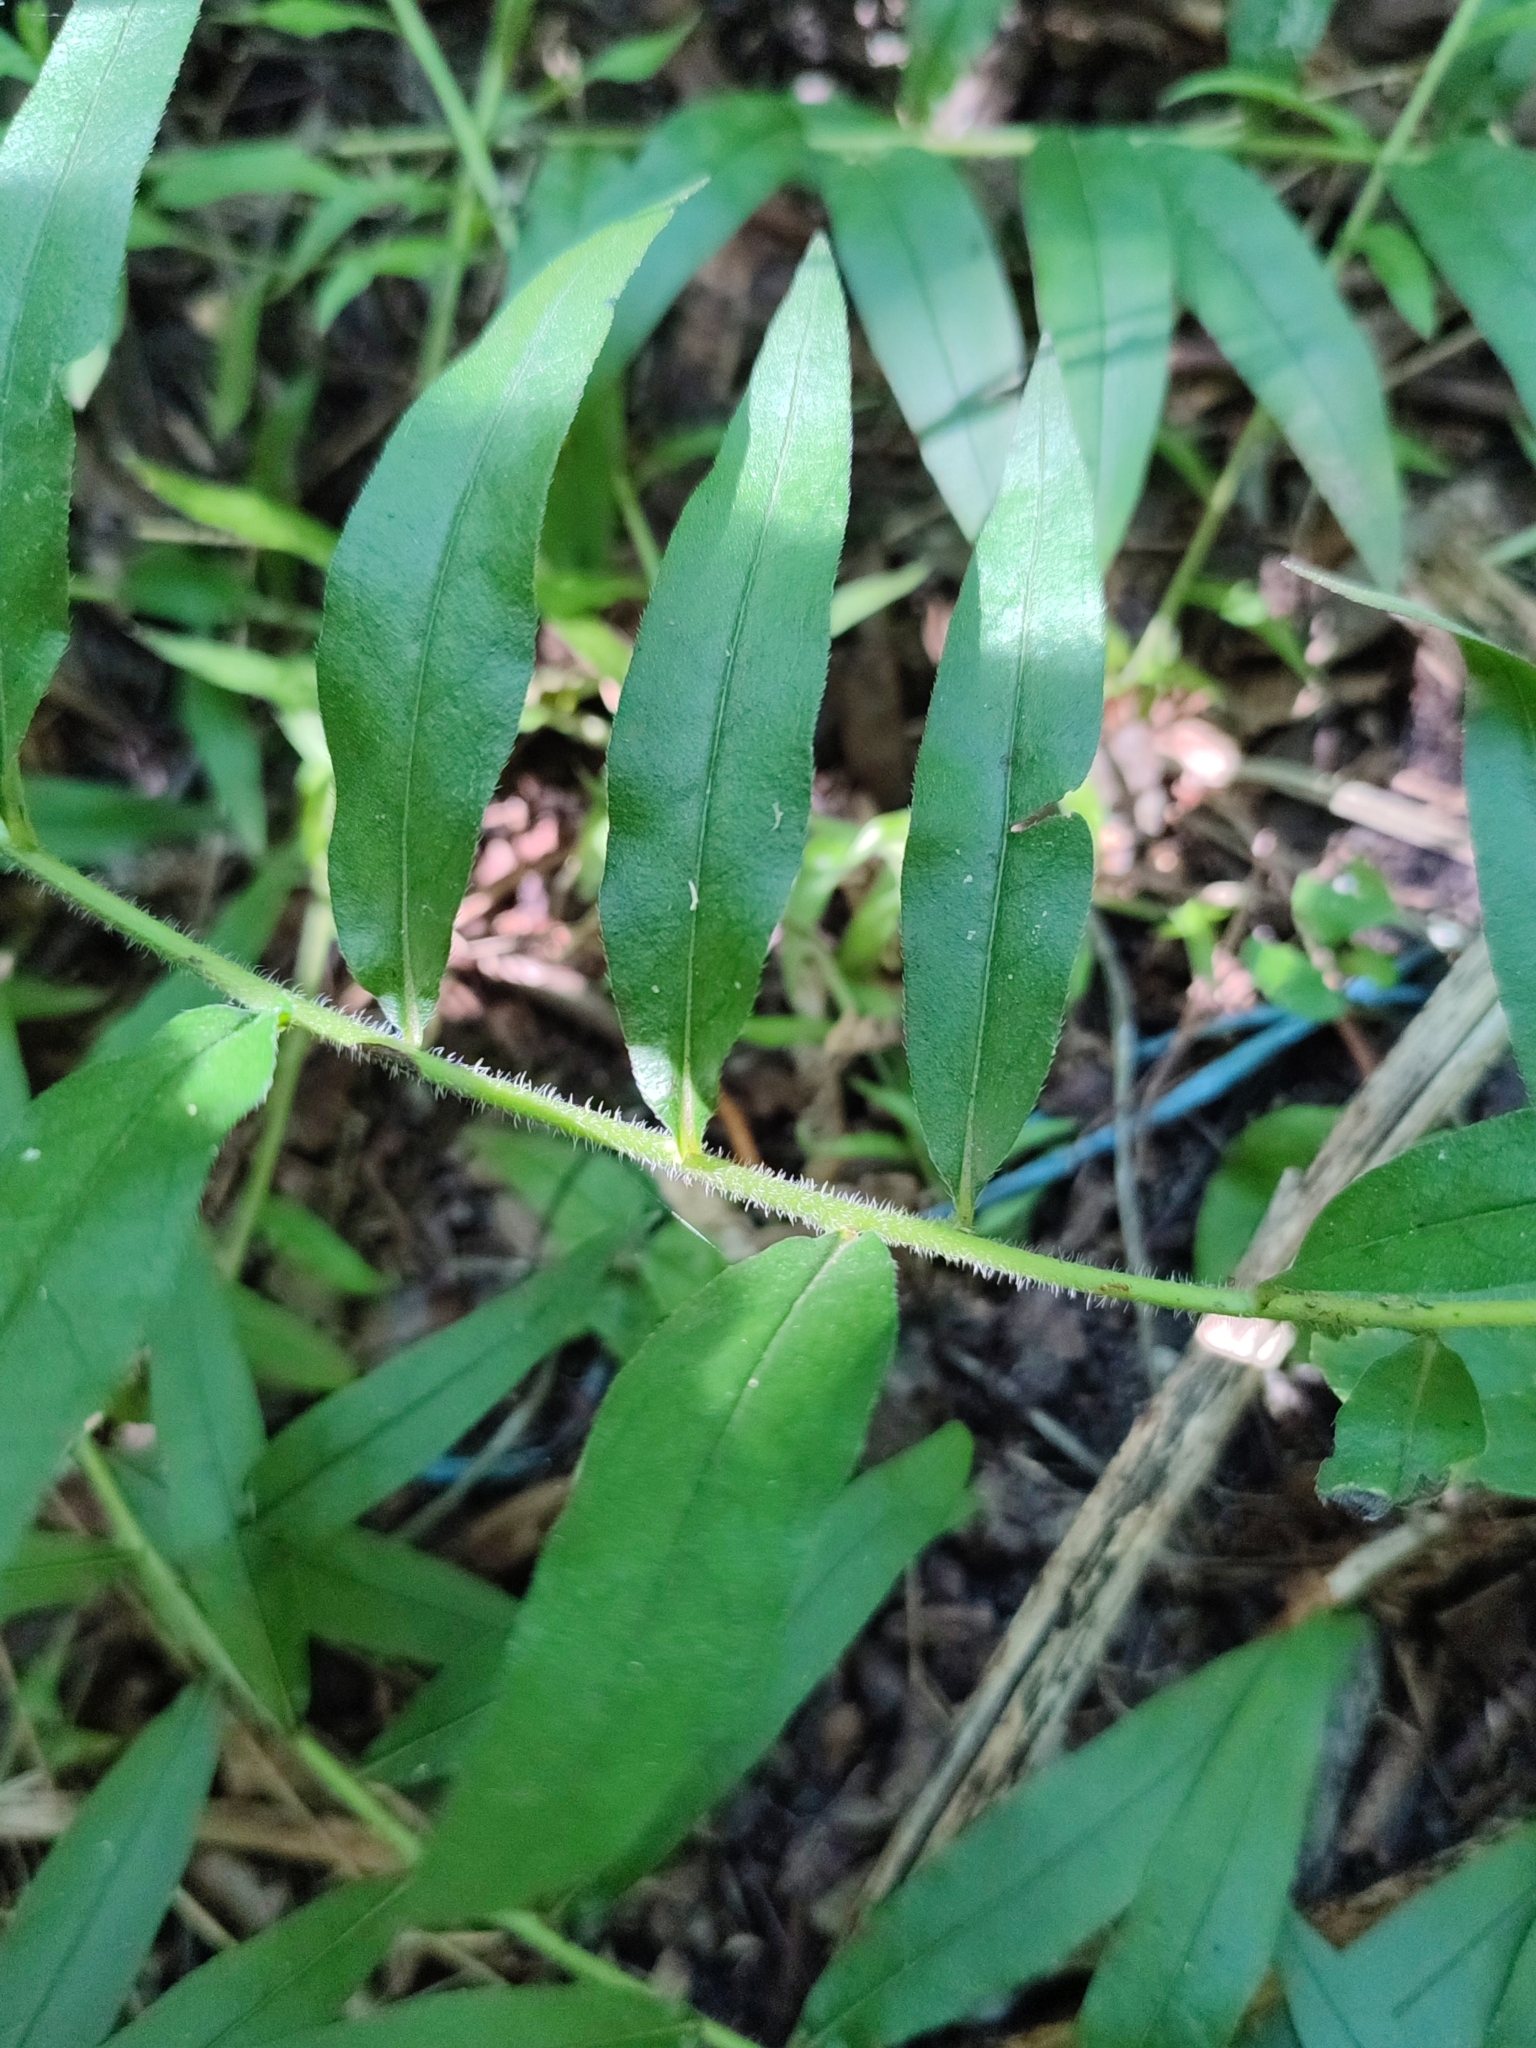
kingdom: Plantae
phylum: Tracheophyta
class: Magnoliopsida
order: Boraginales
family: Boraginaceae
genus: Aegonychon
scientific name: Aegonychon purpurocaeruleum
